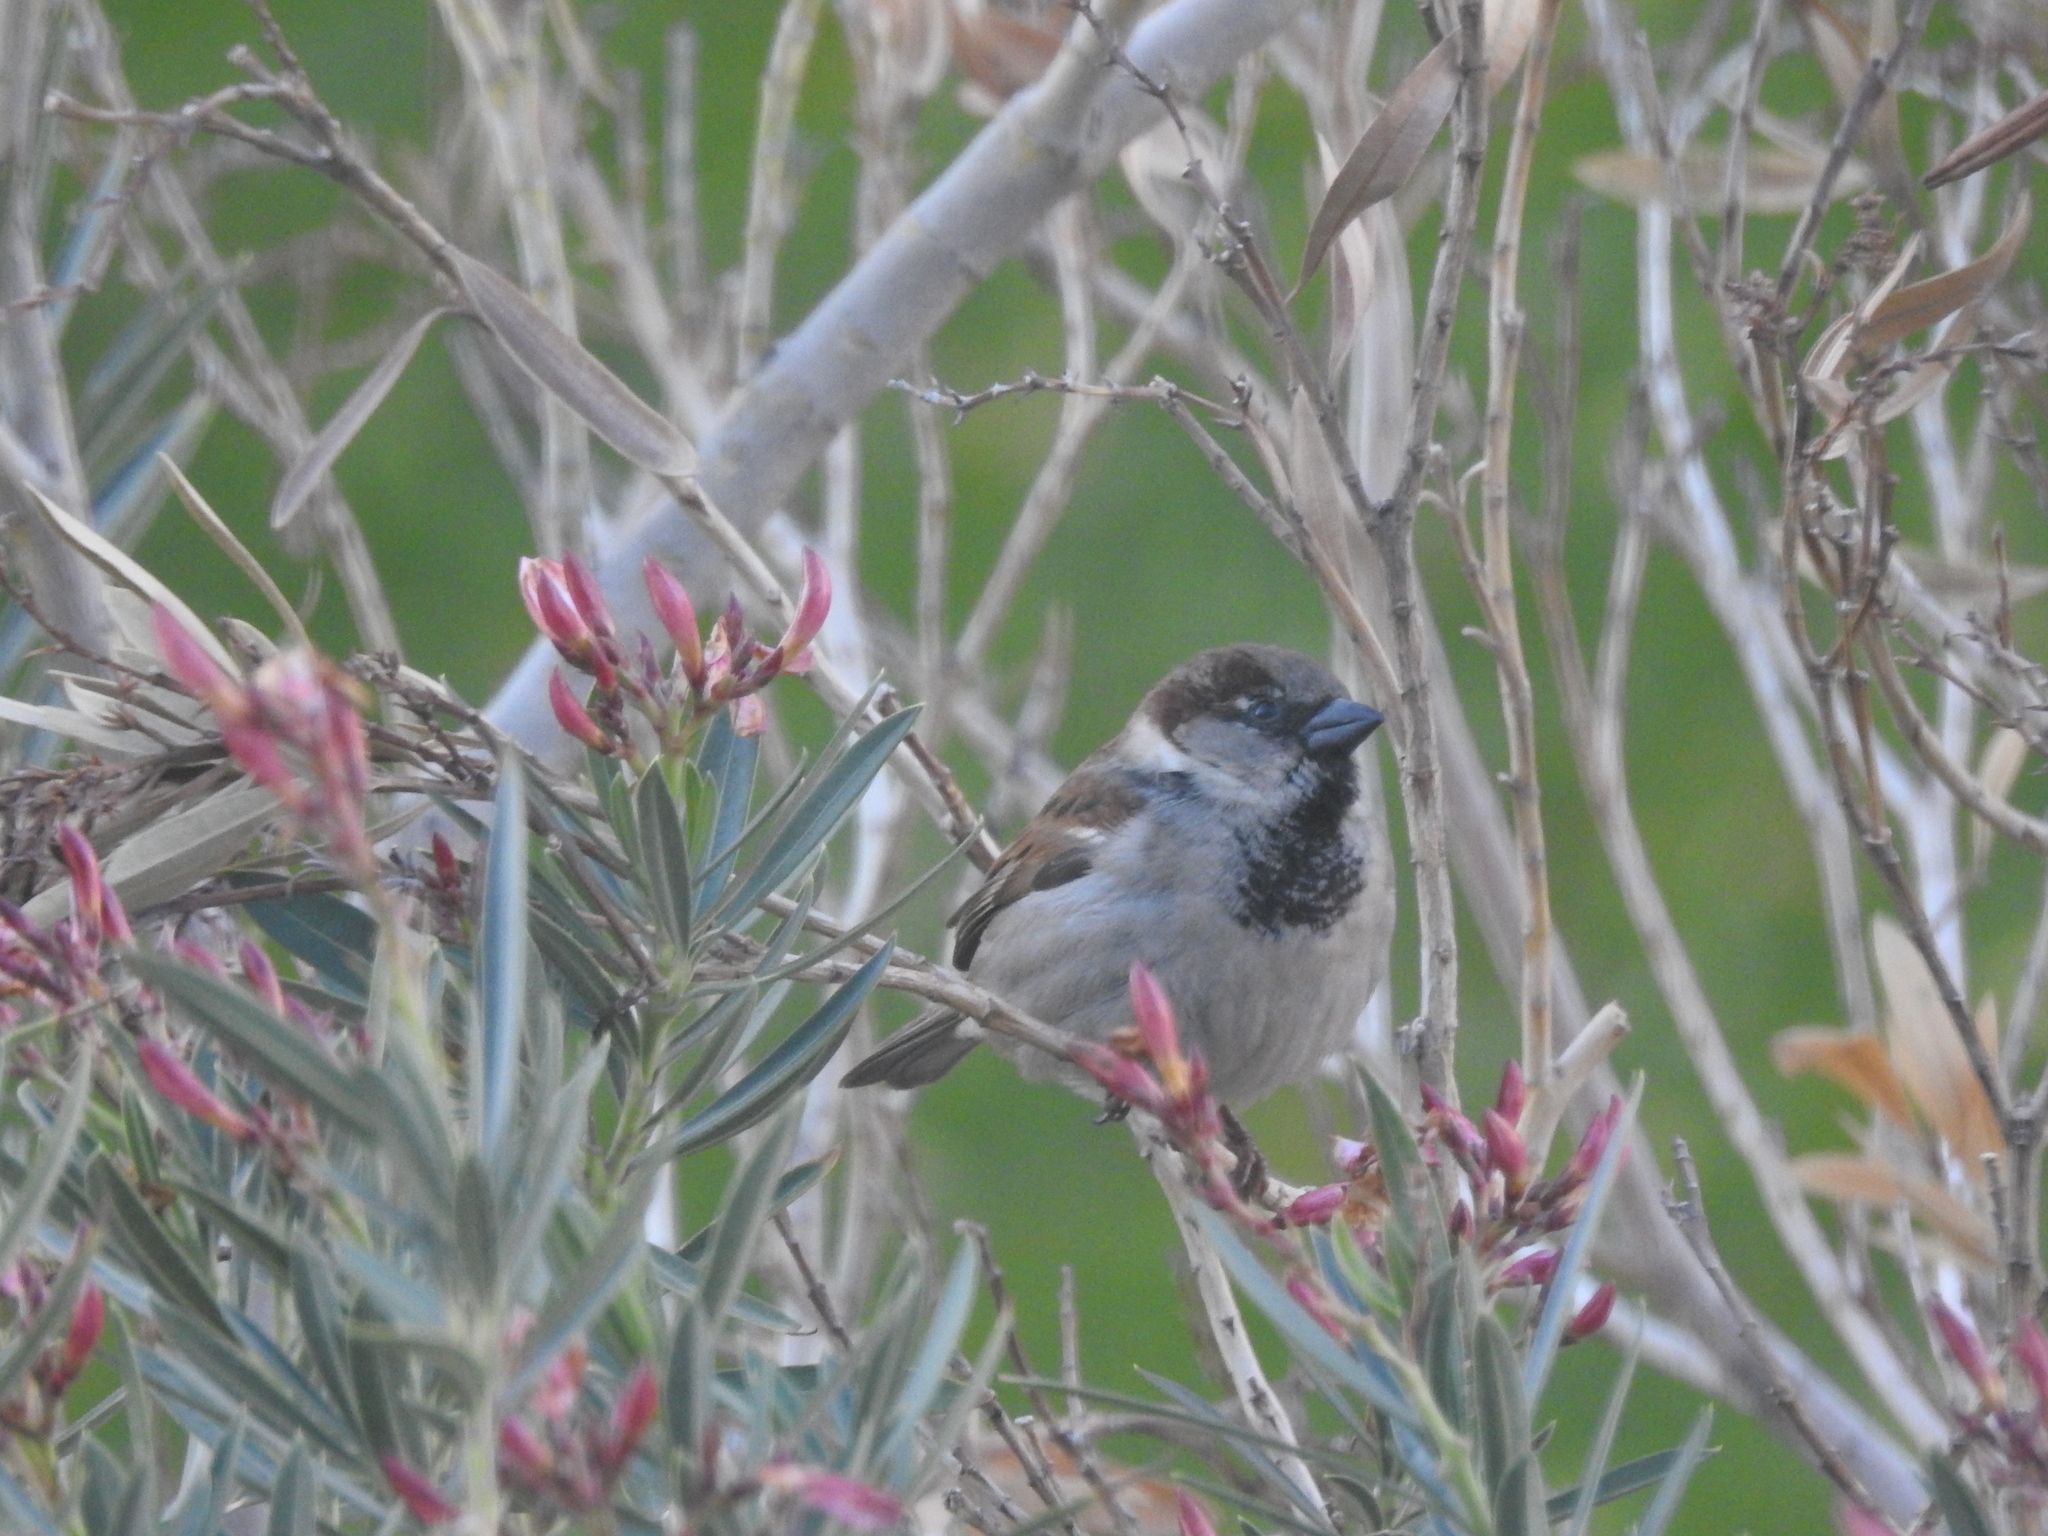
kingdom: Animalia
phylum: Chordata
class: Aves
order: Passeriformes
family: Passeridae
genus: Passer
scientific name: Passer domesticus
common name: House sparrow
